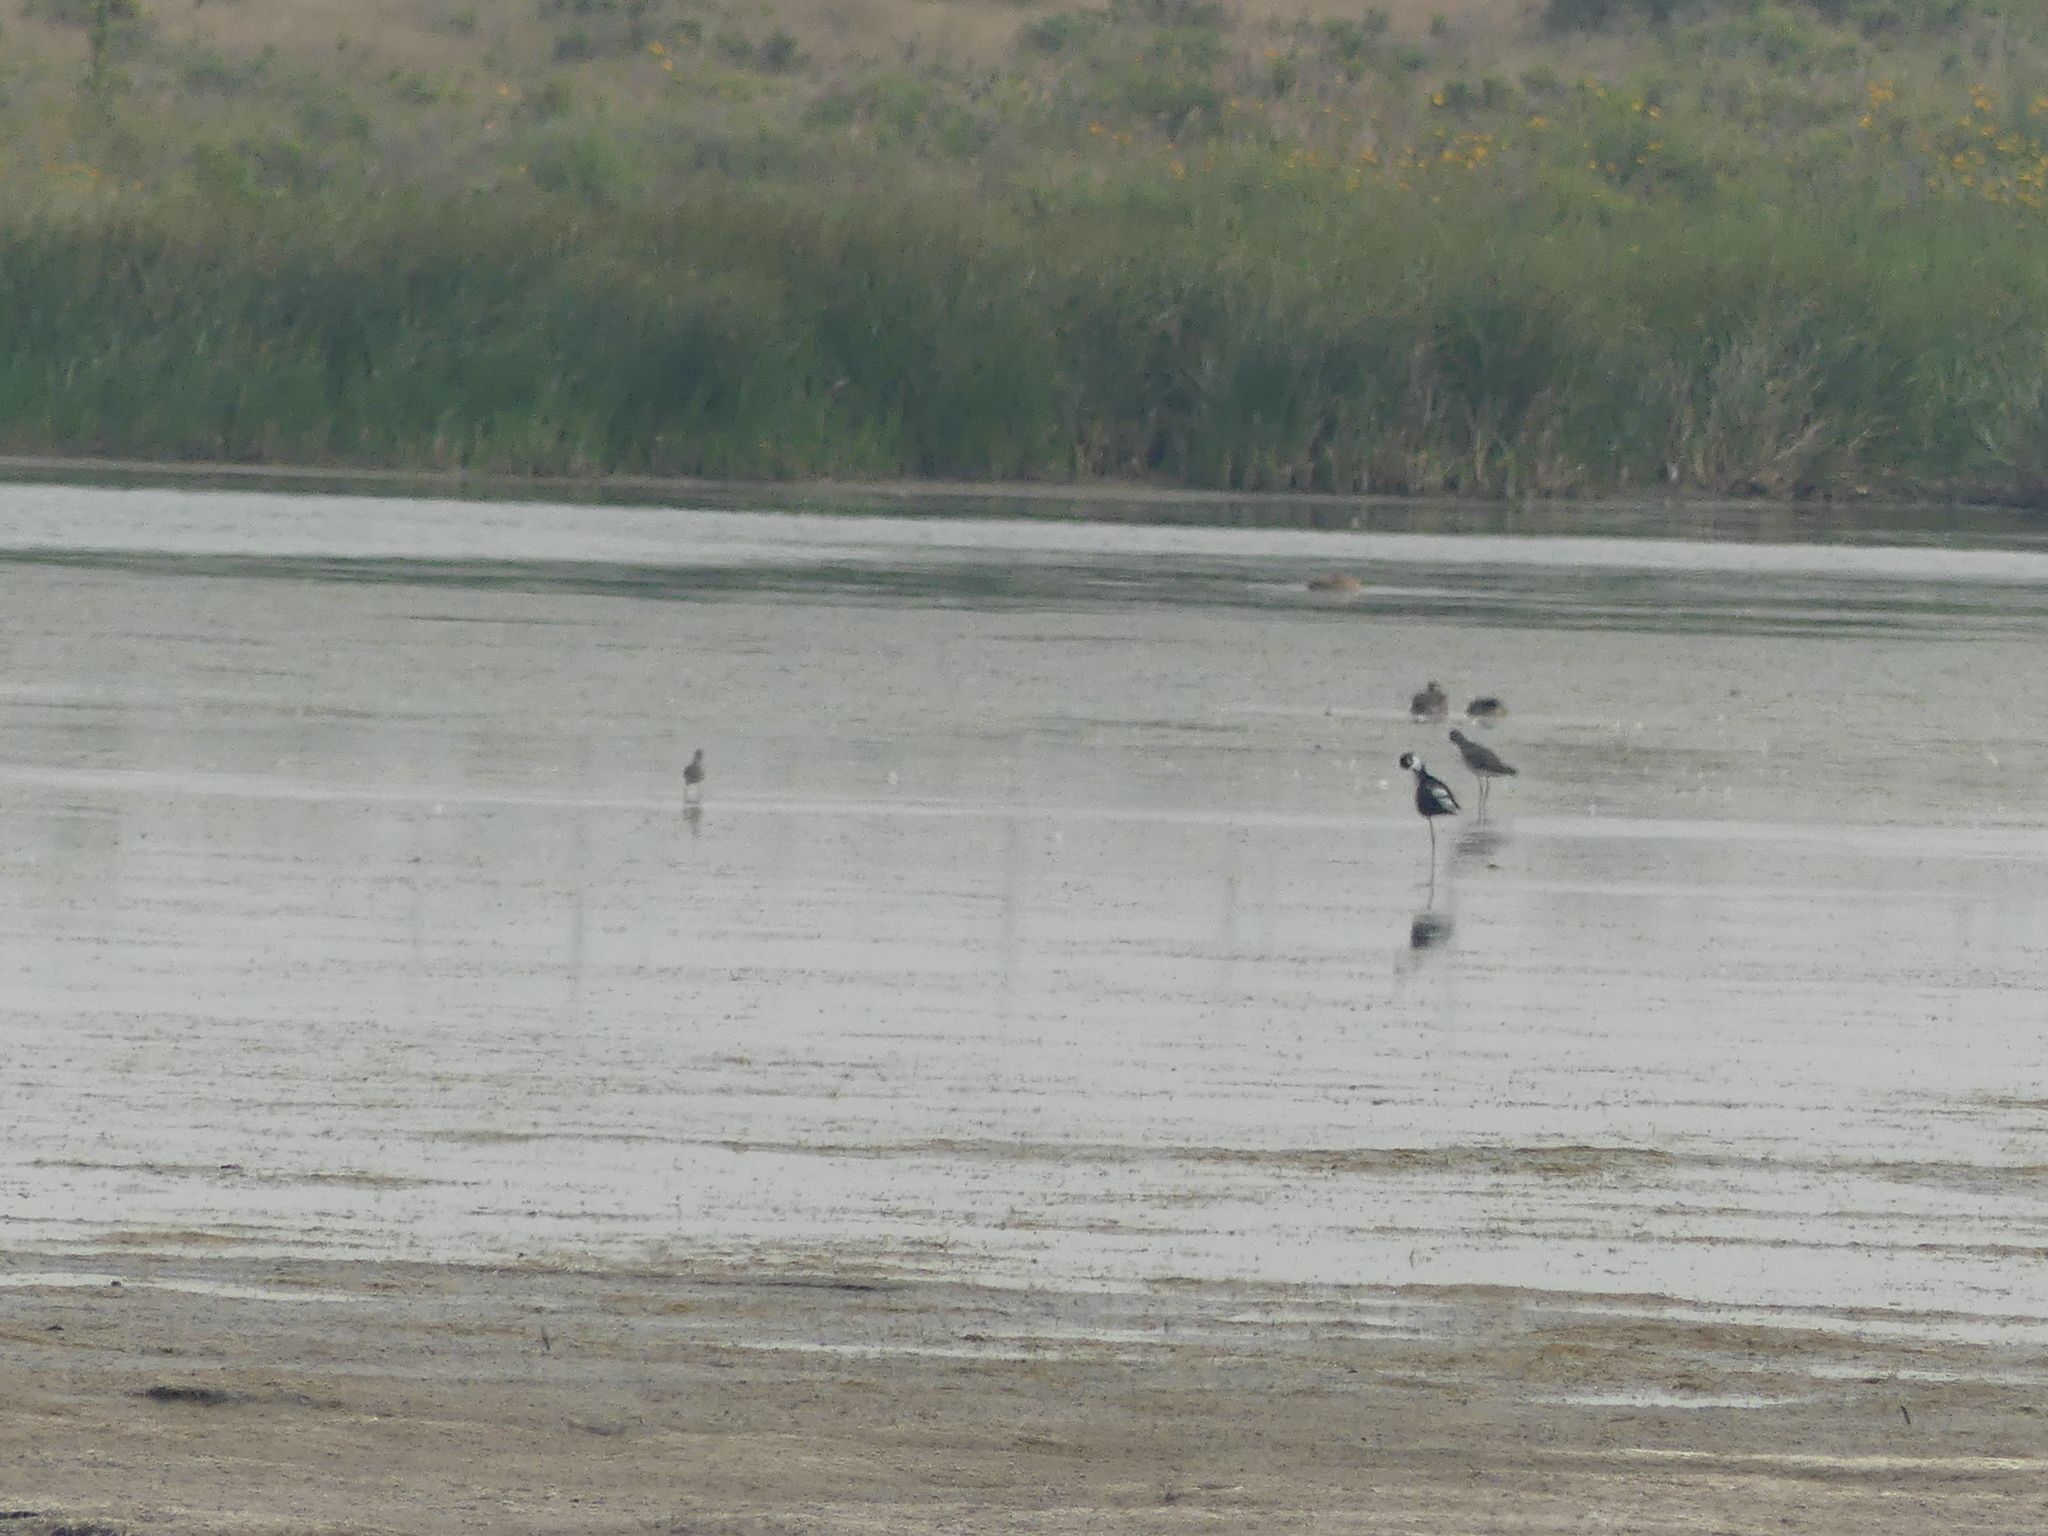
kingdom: Animalia
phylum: Chordata
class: Aves
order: Charadriiformes
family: Recurvirostridae
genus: Himantopus
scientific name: Himantopus mexicanus
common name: Black-necked stilt
